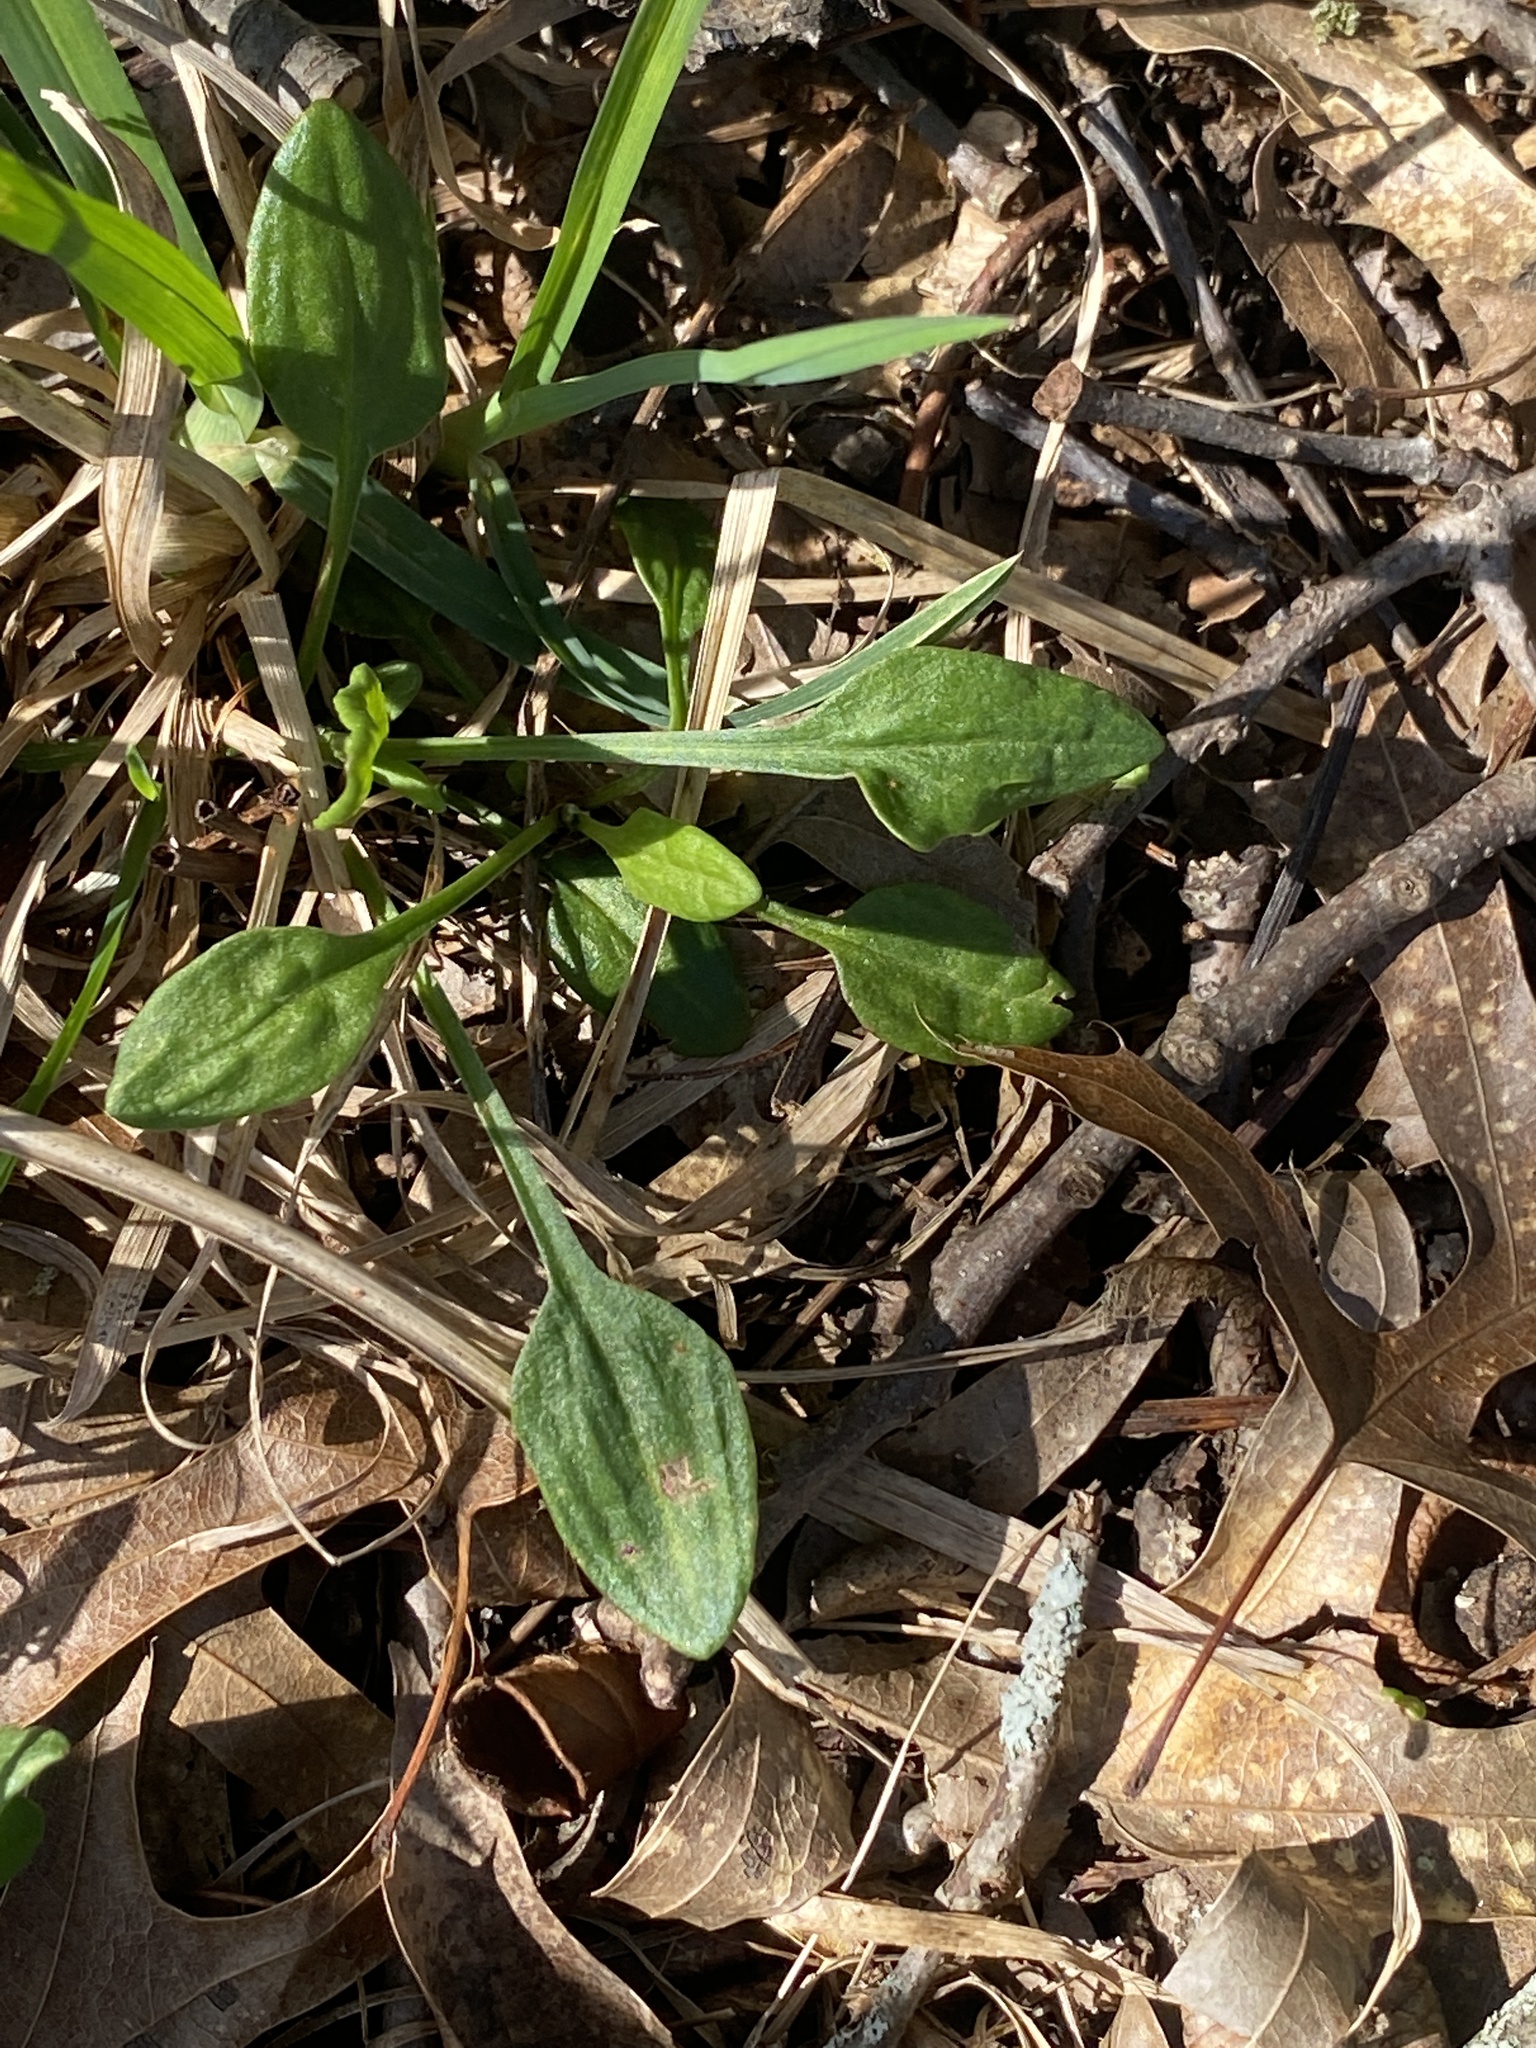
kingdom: Plantae
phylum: Tracheophyta
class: Magnoliopsida
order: Caryophyllales
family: Polygonaceae
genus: Rumex
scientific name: Rumex acetosella
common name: Common sheep sorrel
